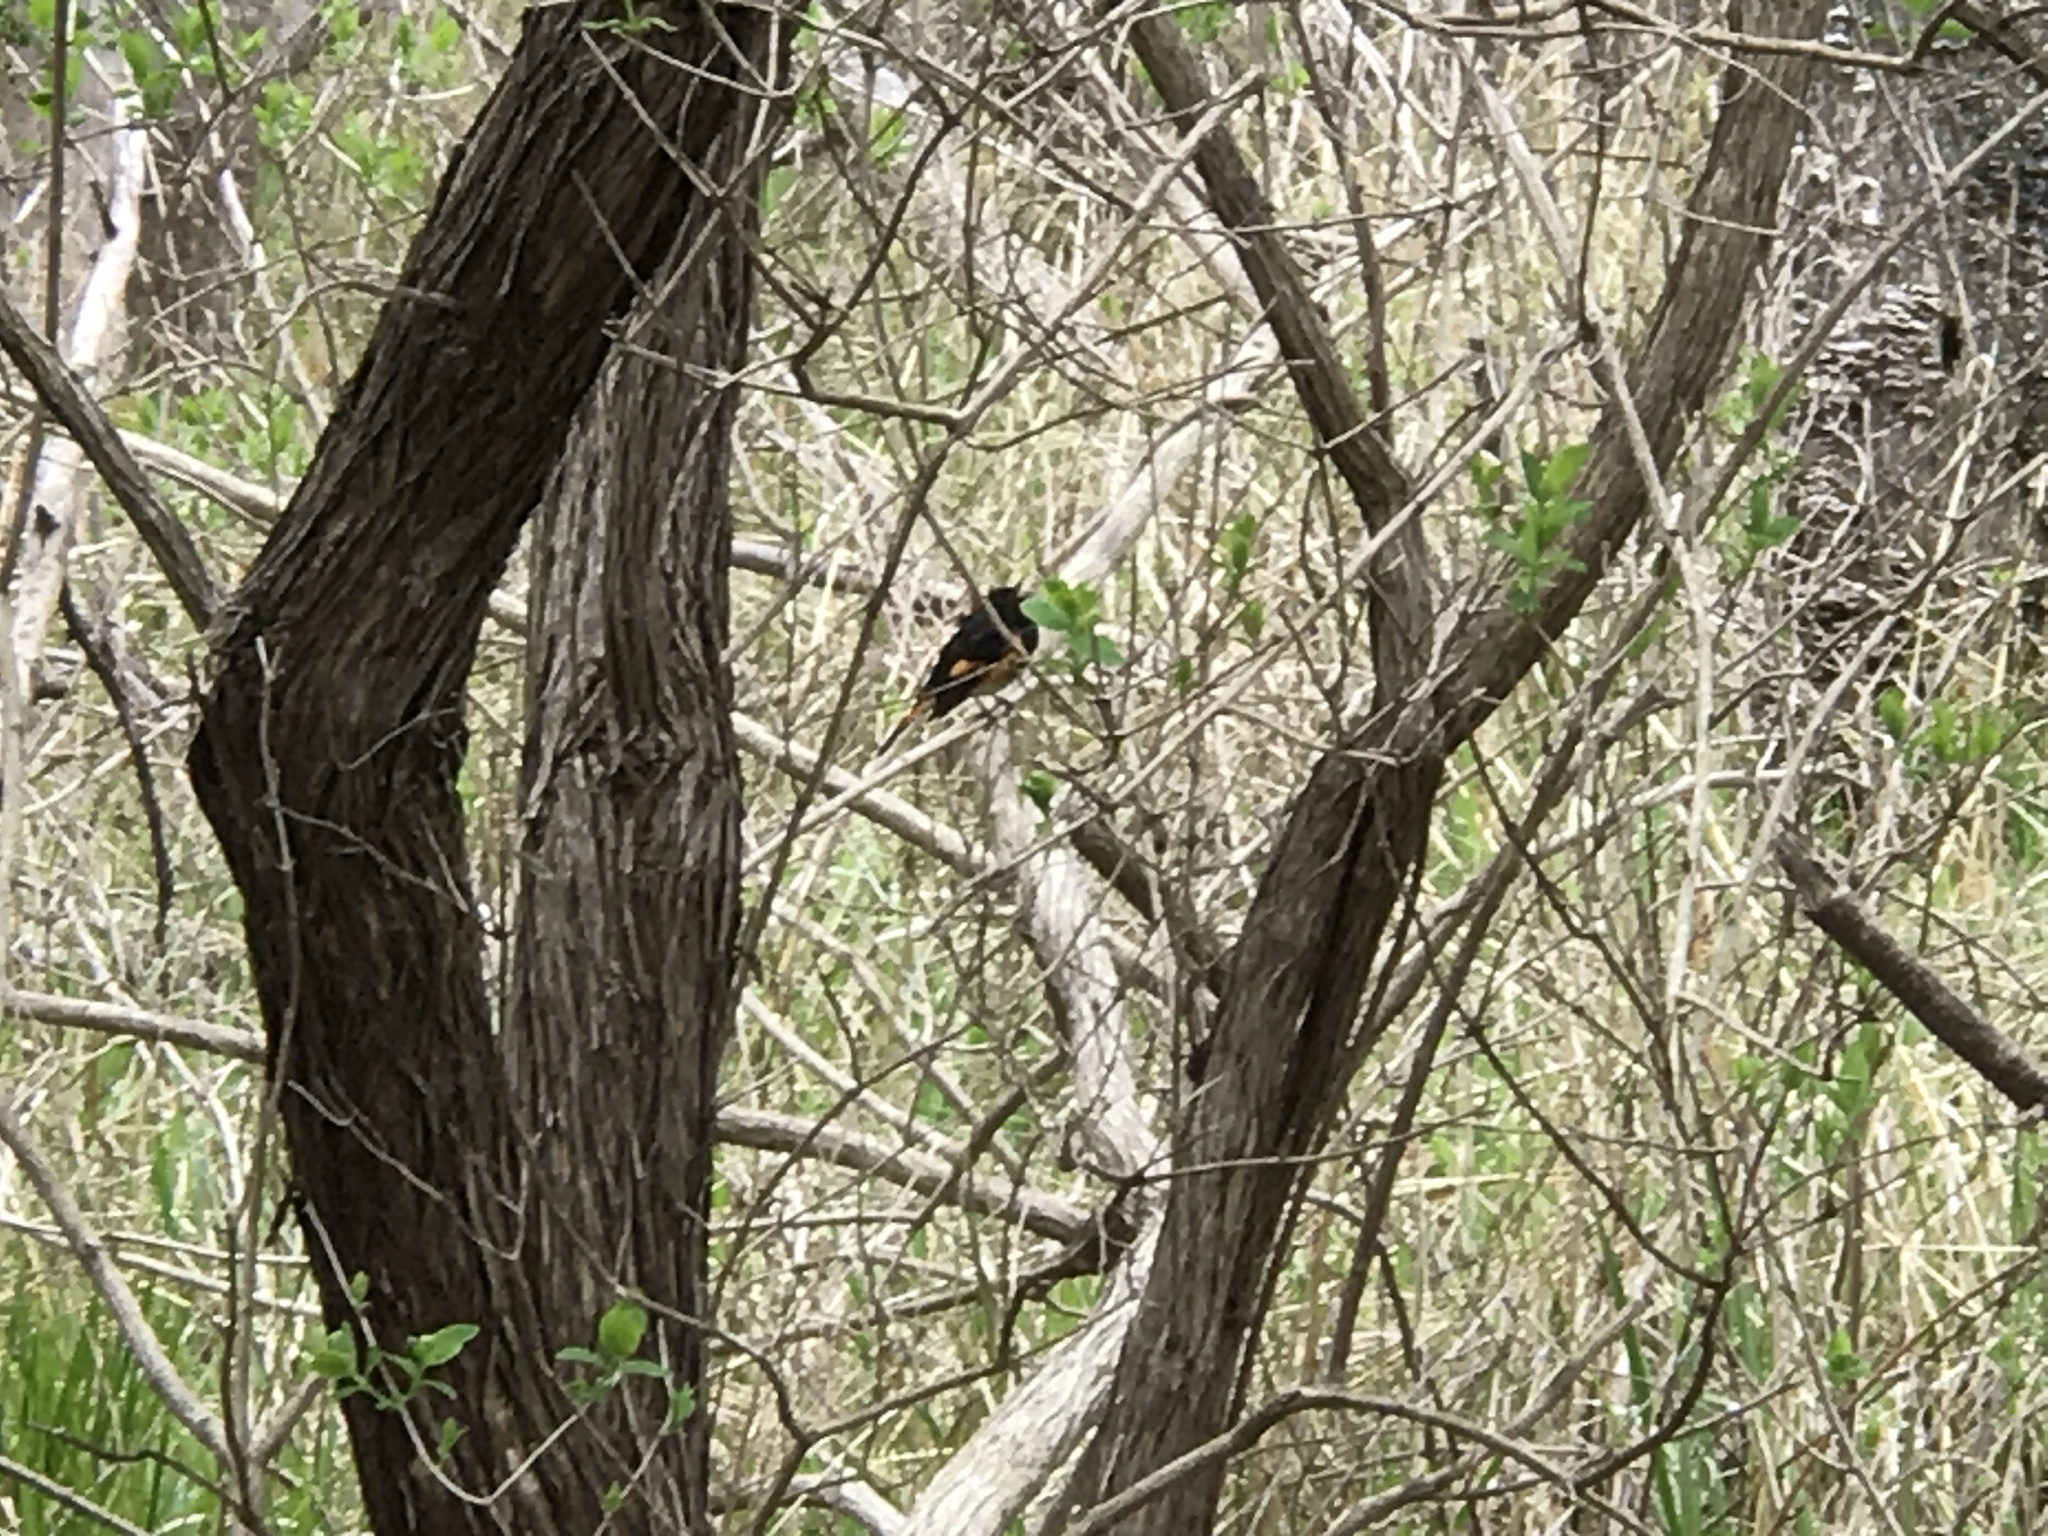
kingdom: Animalia
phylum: Chordata
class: Aves
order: Passeriformes
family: Parulidae
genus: Setophaga
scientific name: Setophaga ruticilla
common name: American redstart
